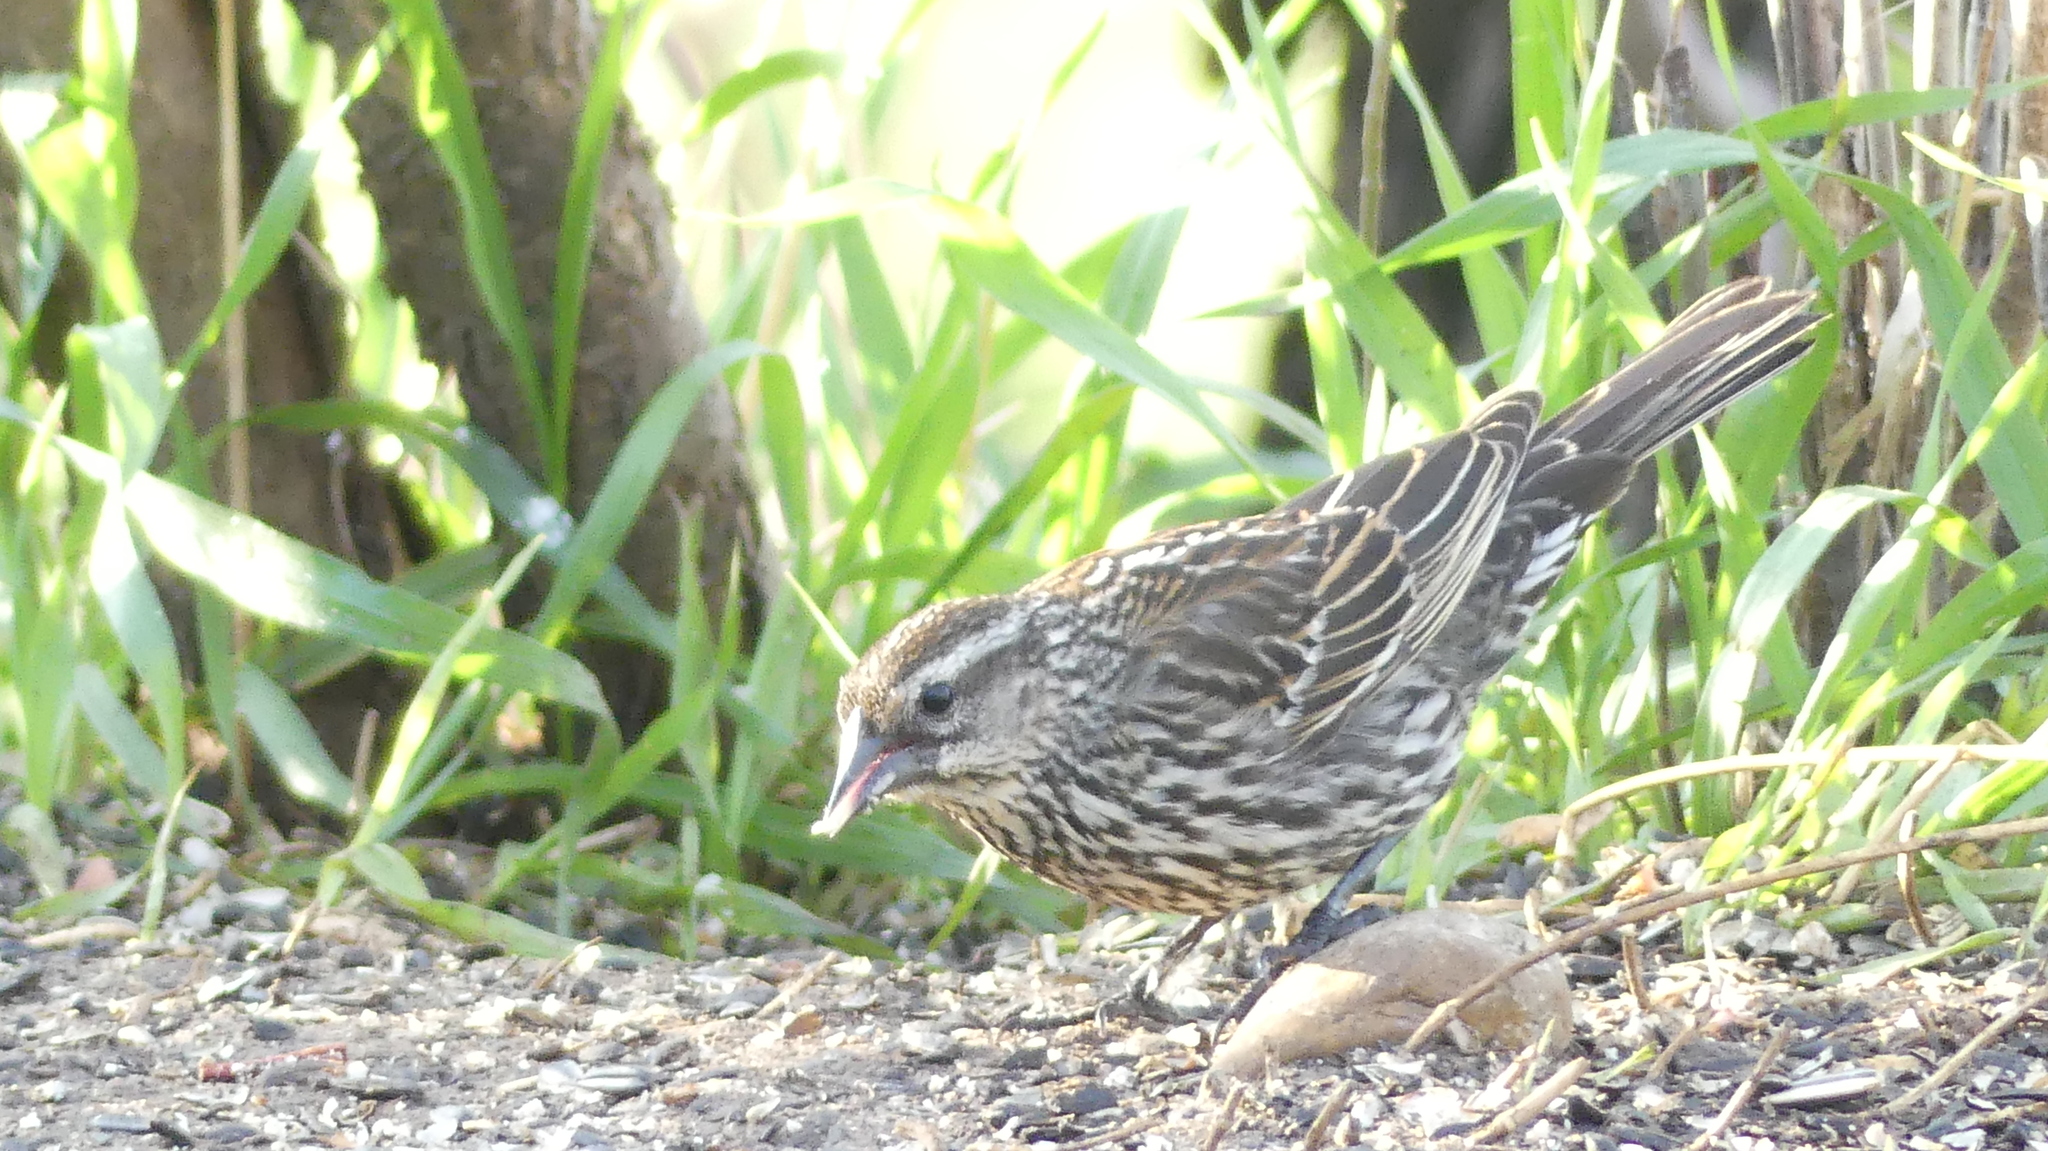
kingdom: Animalia
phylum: Chordata
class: Aves
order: Passeriformes
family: Icteridae
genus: Agelaius
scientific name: Agelaius phoeniceus
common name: Red-winged blackbird
